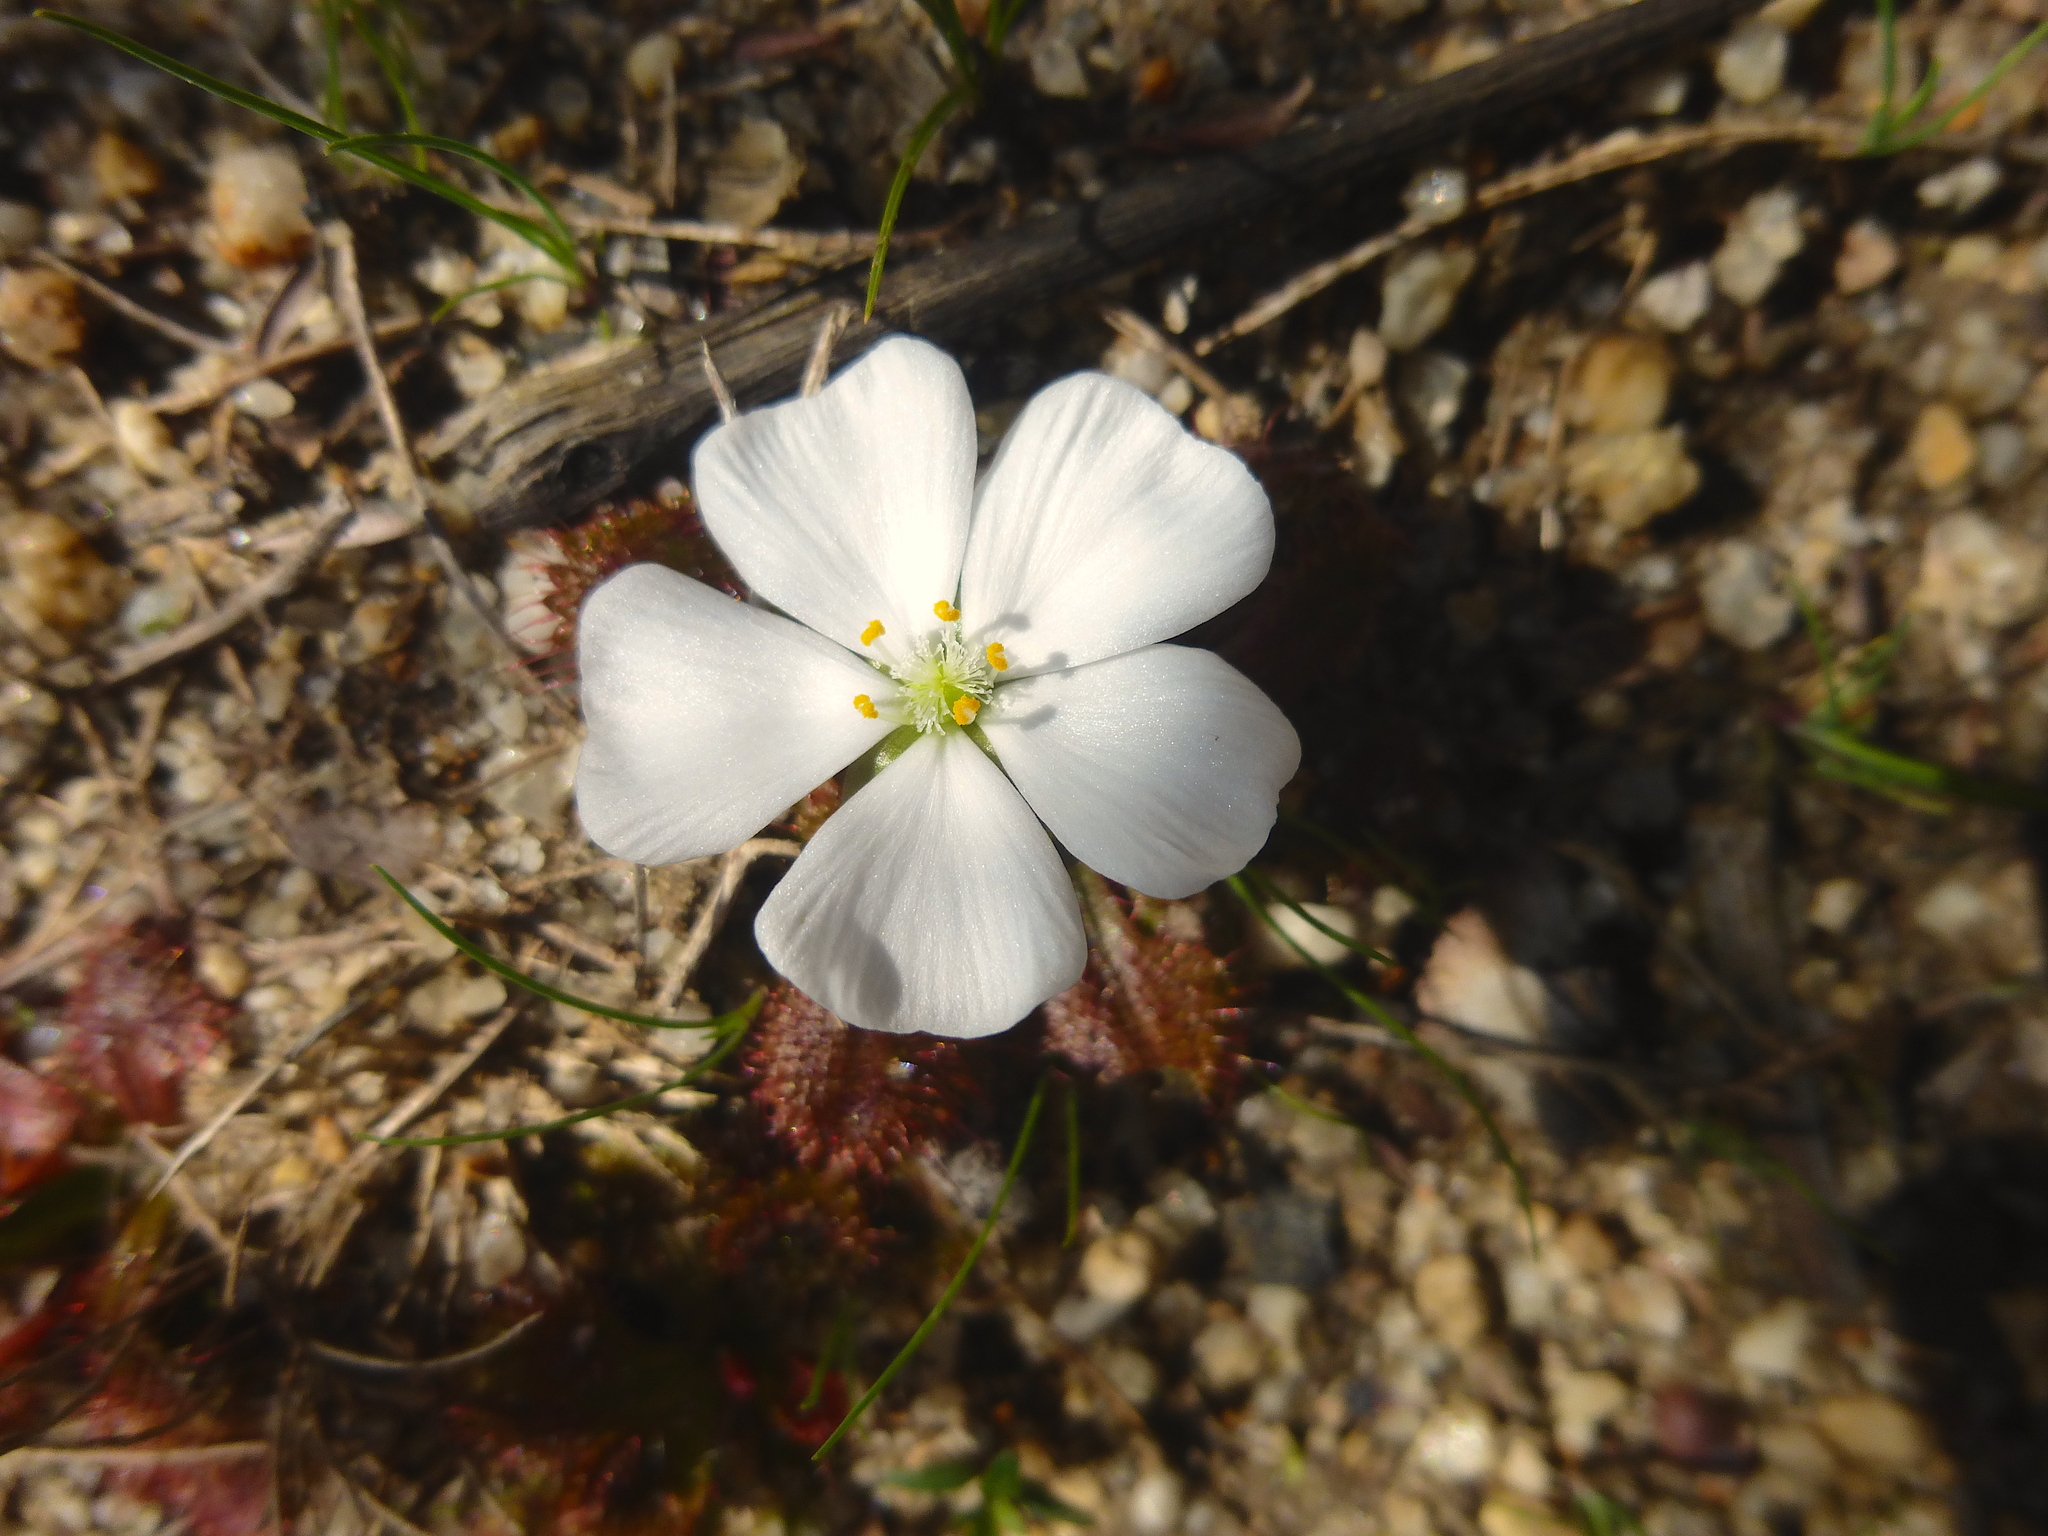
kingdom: Plantae
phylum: Tracheophyta
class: Magnoliopsida
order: Caryophyllales
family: Droseraceae
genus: Drosera
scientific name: Drosera aberrans
